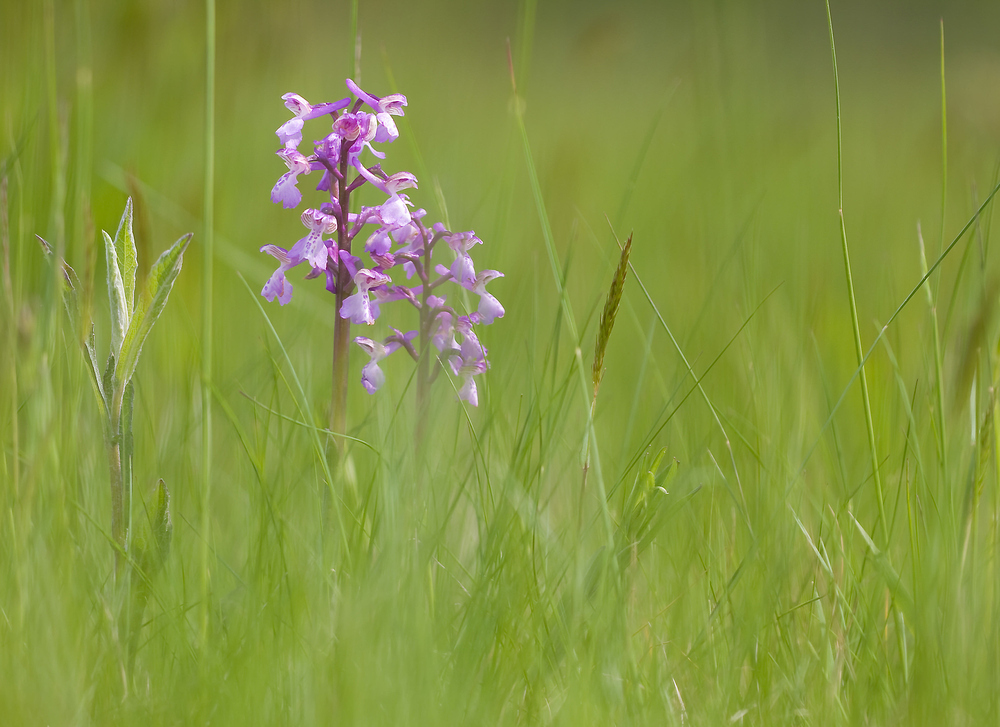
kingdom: Plantae
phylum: Tracheophyta
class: Liliopsida
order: Asparagales
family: Orchidaceae
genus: Anacamptis
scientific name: Anacamptis morio
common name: Green-winged orchid
